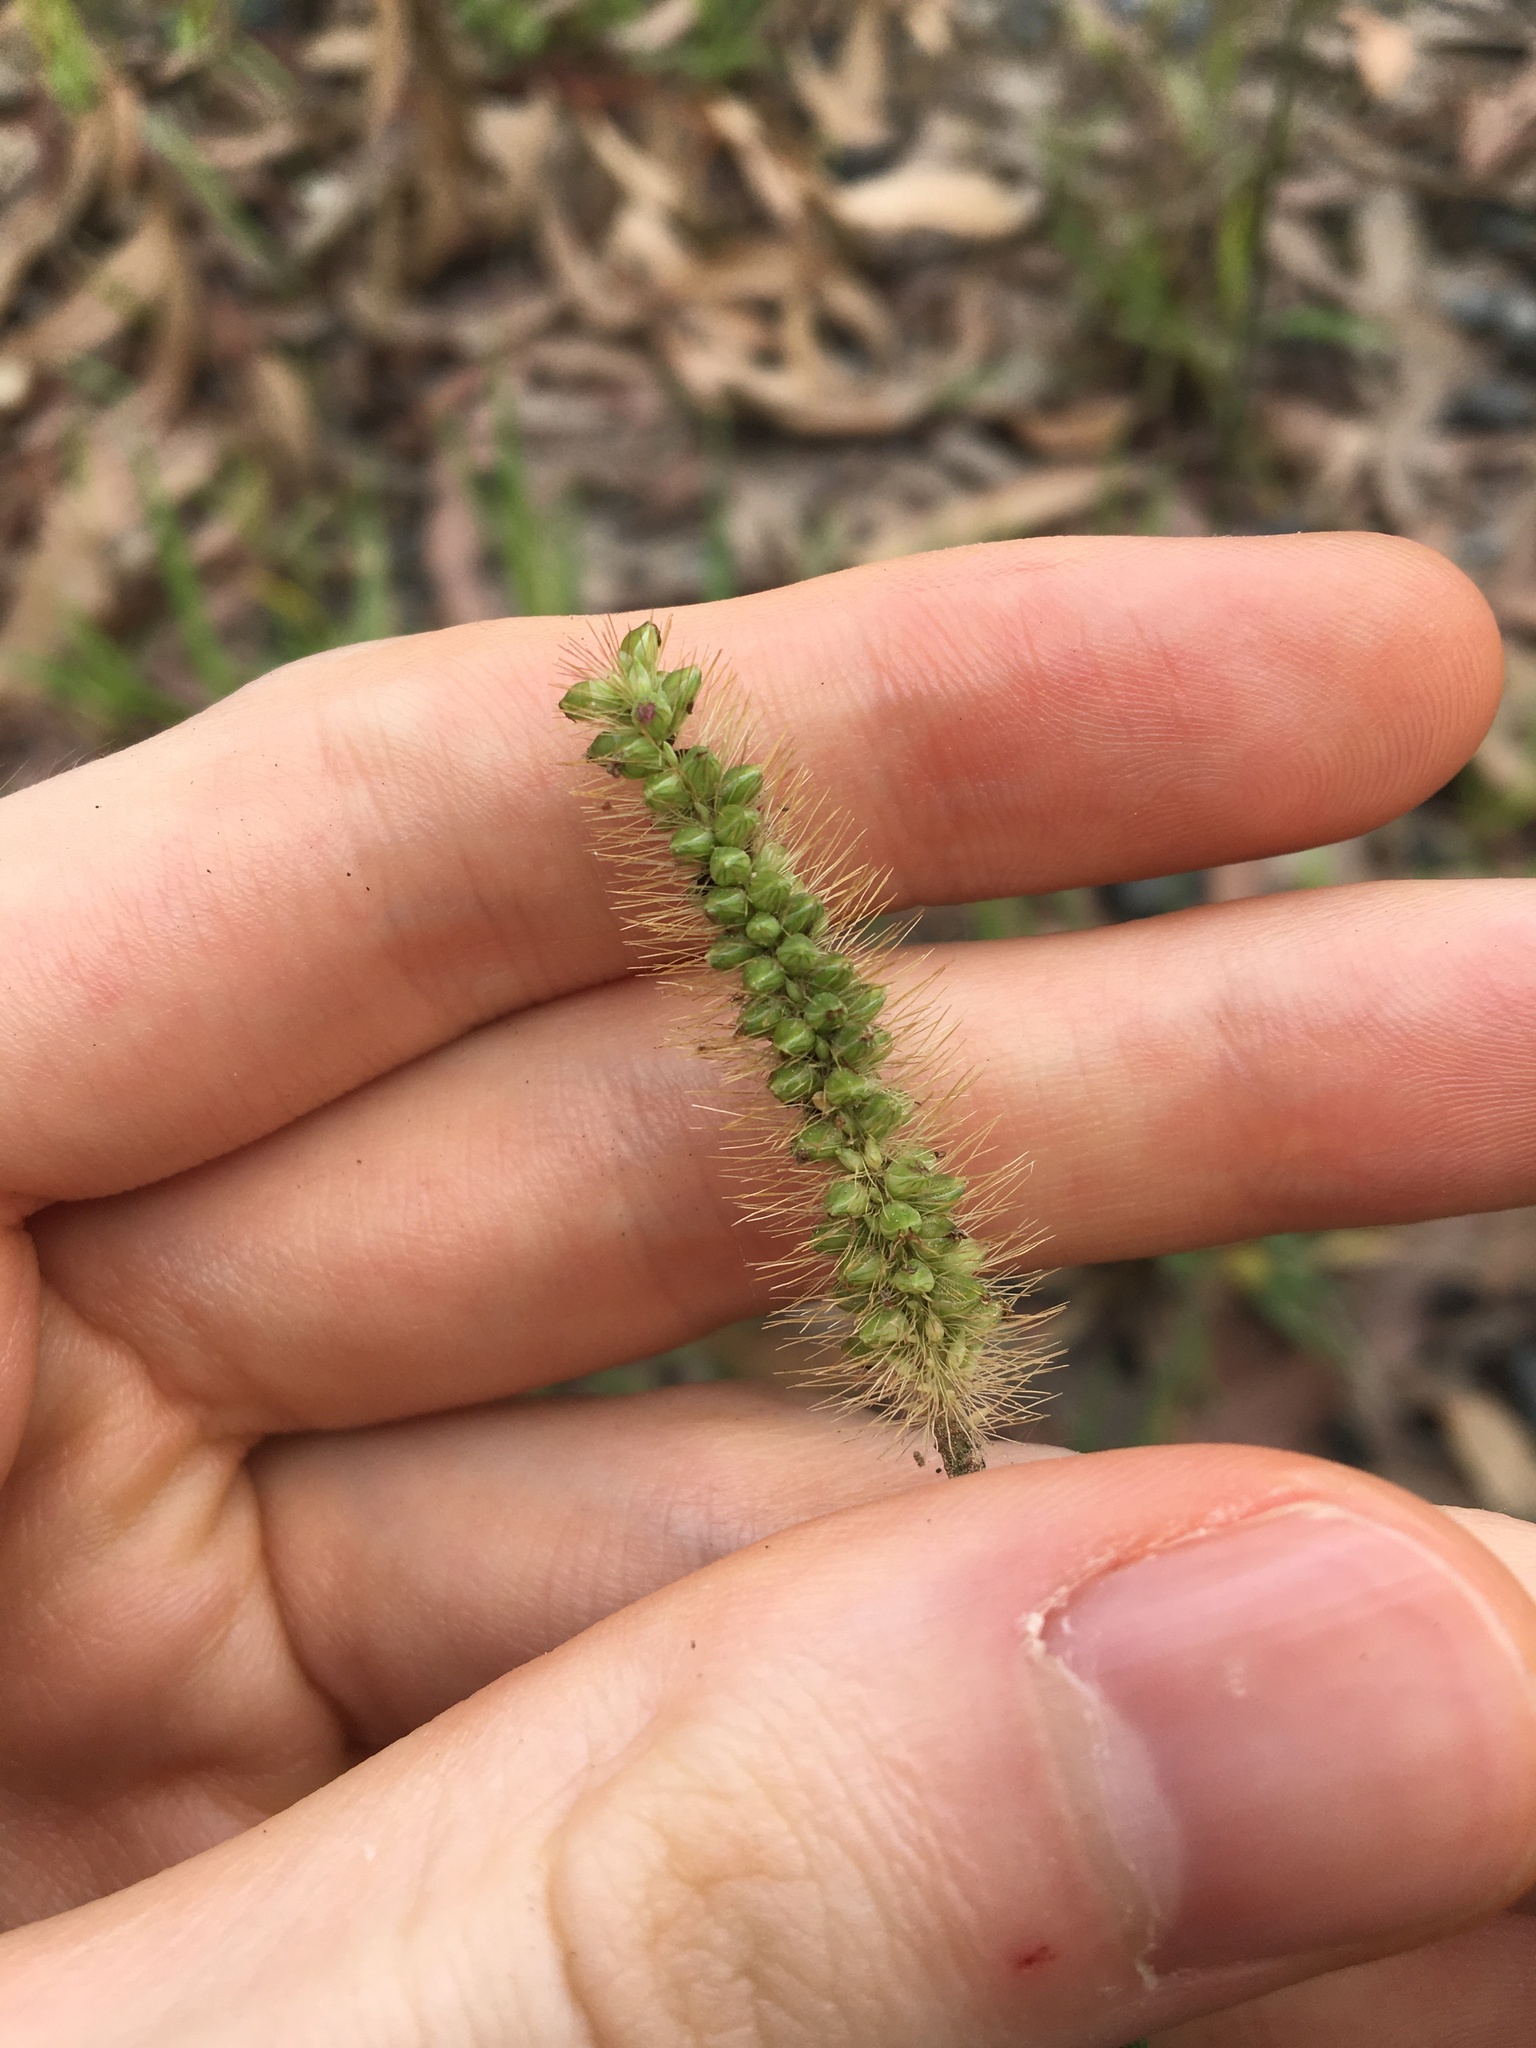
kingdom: Plantae
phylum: Tracheophyta
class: Liliopsida
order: Poales
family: Poaceae
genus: Setaria
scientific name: Setaria pumila
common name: Yellow bristle-grass
